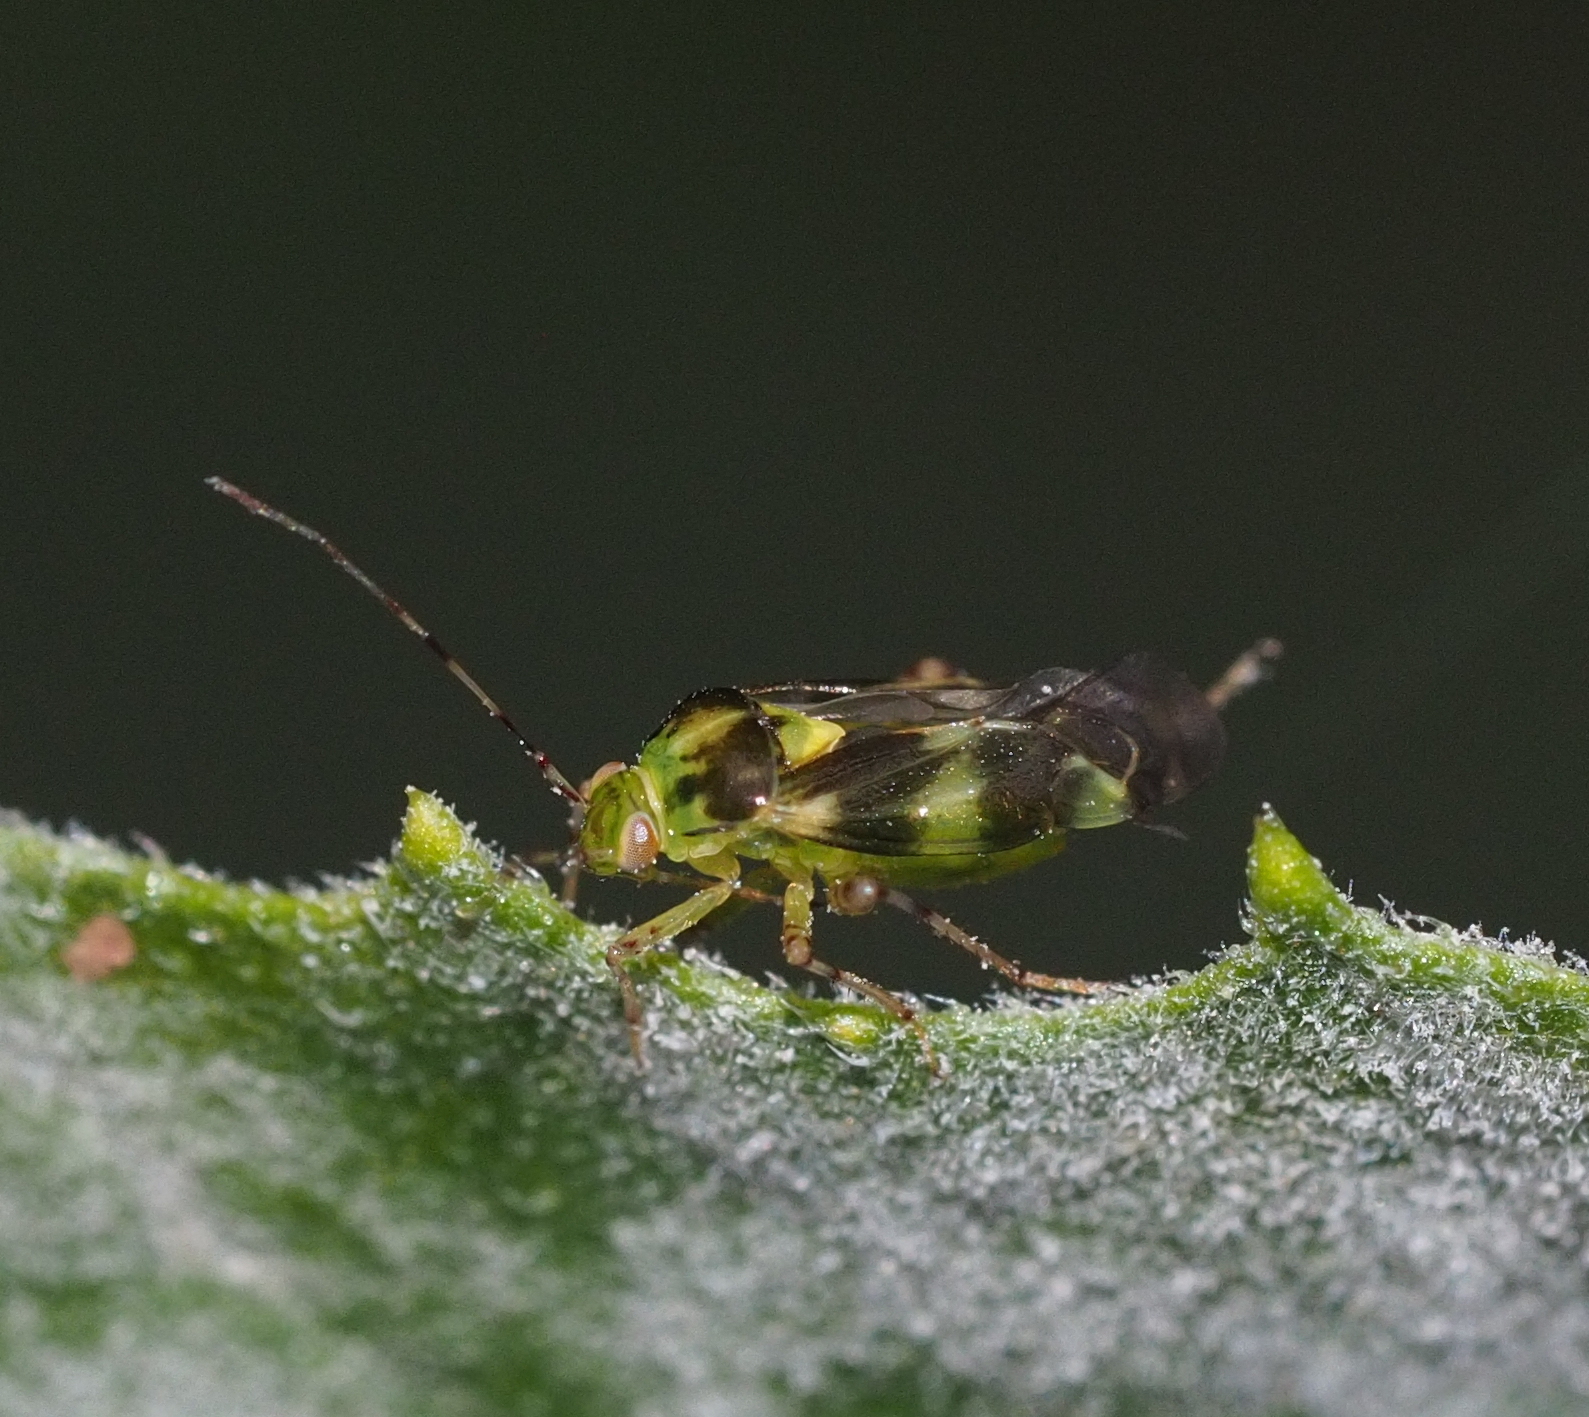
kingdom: Animalia
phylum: Arthropoda
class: Insecta
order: Hemiptera
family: Miridae
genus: Liocoris
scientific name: Liocoris tripustulatus
